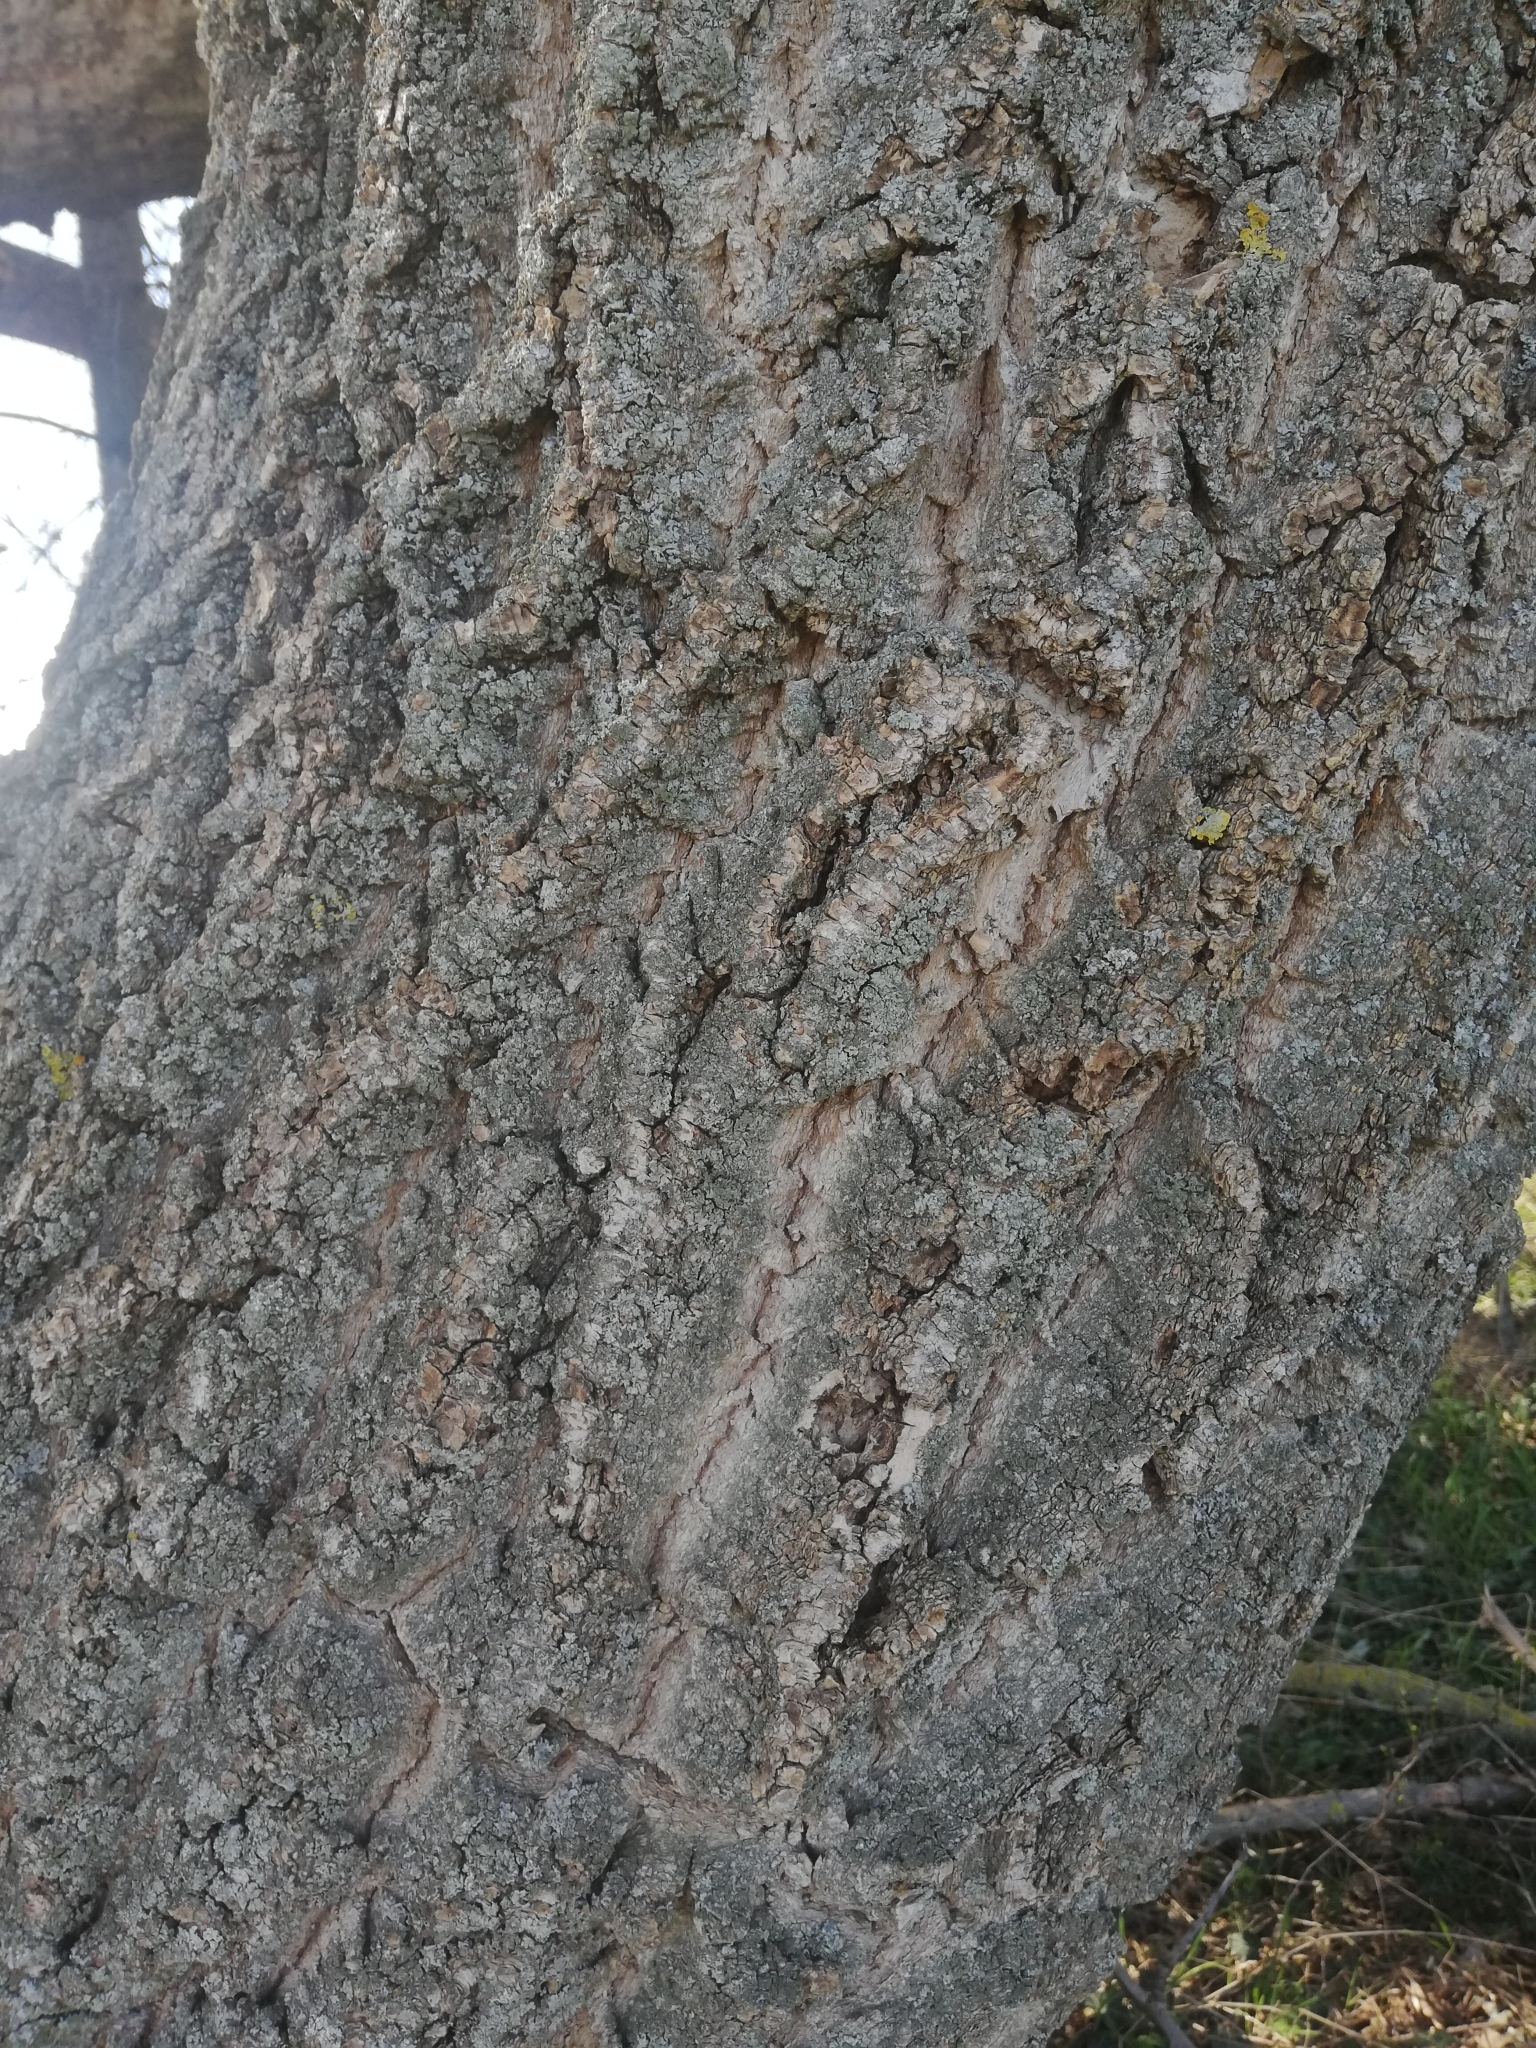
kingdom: Plantae
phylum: Tracheophyta
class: Magnoliopsida
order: Sapindales
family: Sapindaceae
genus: Acer
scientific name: Acer negundo
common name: Ashleaf maple
